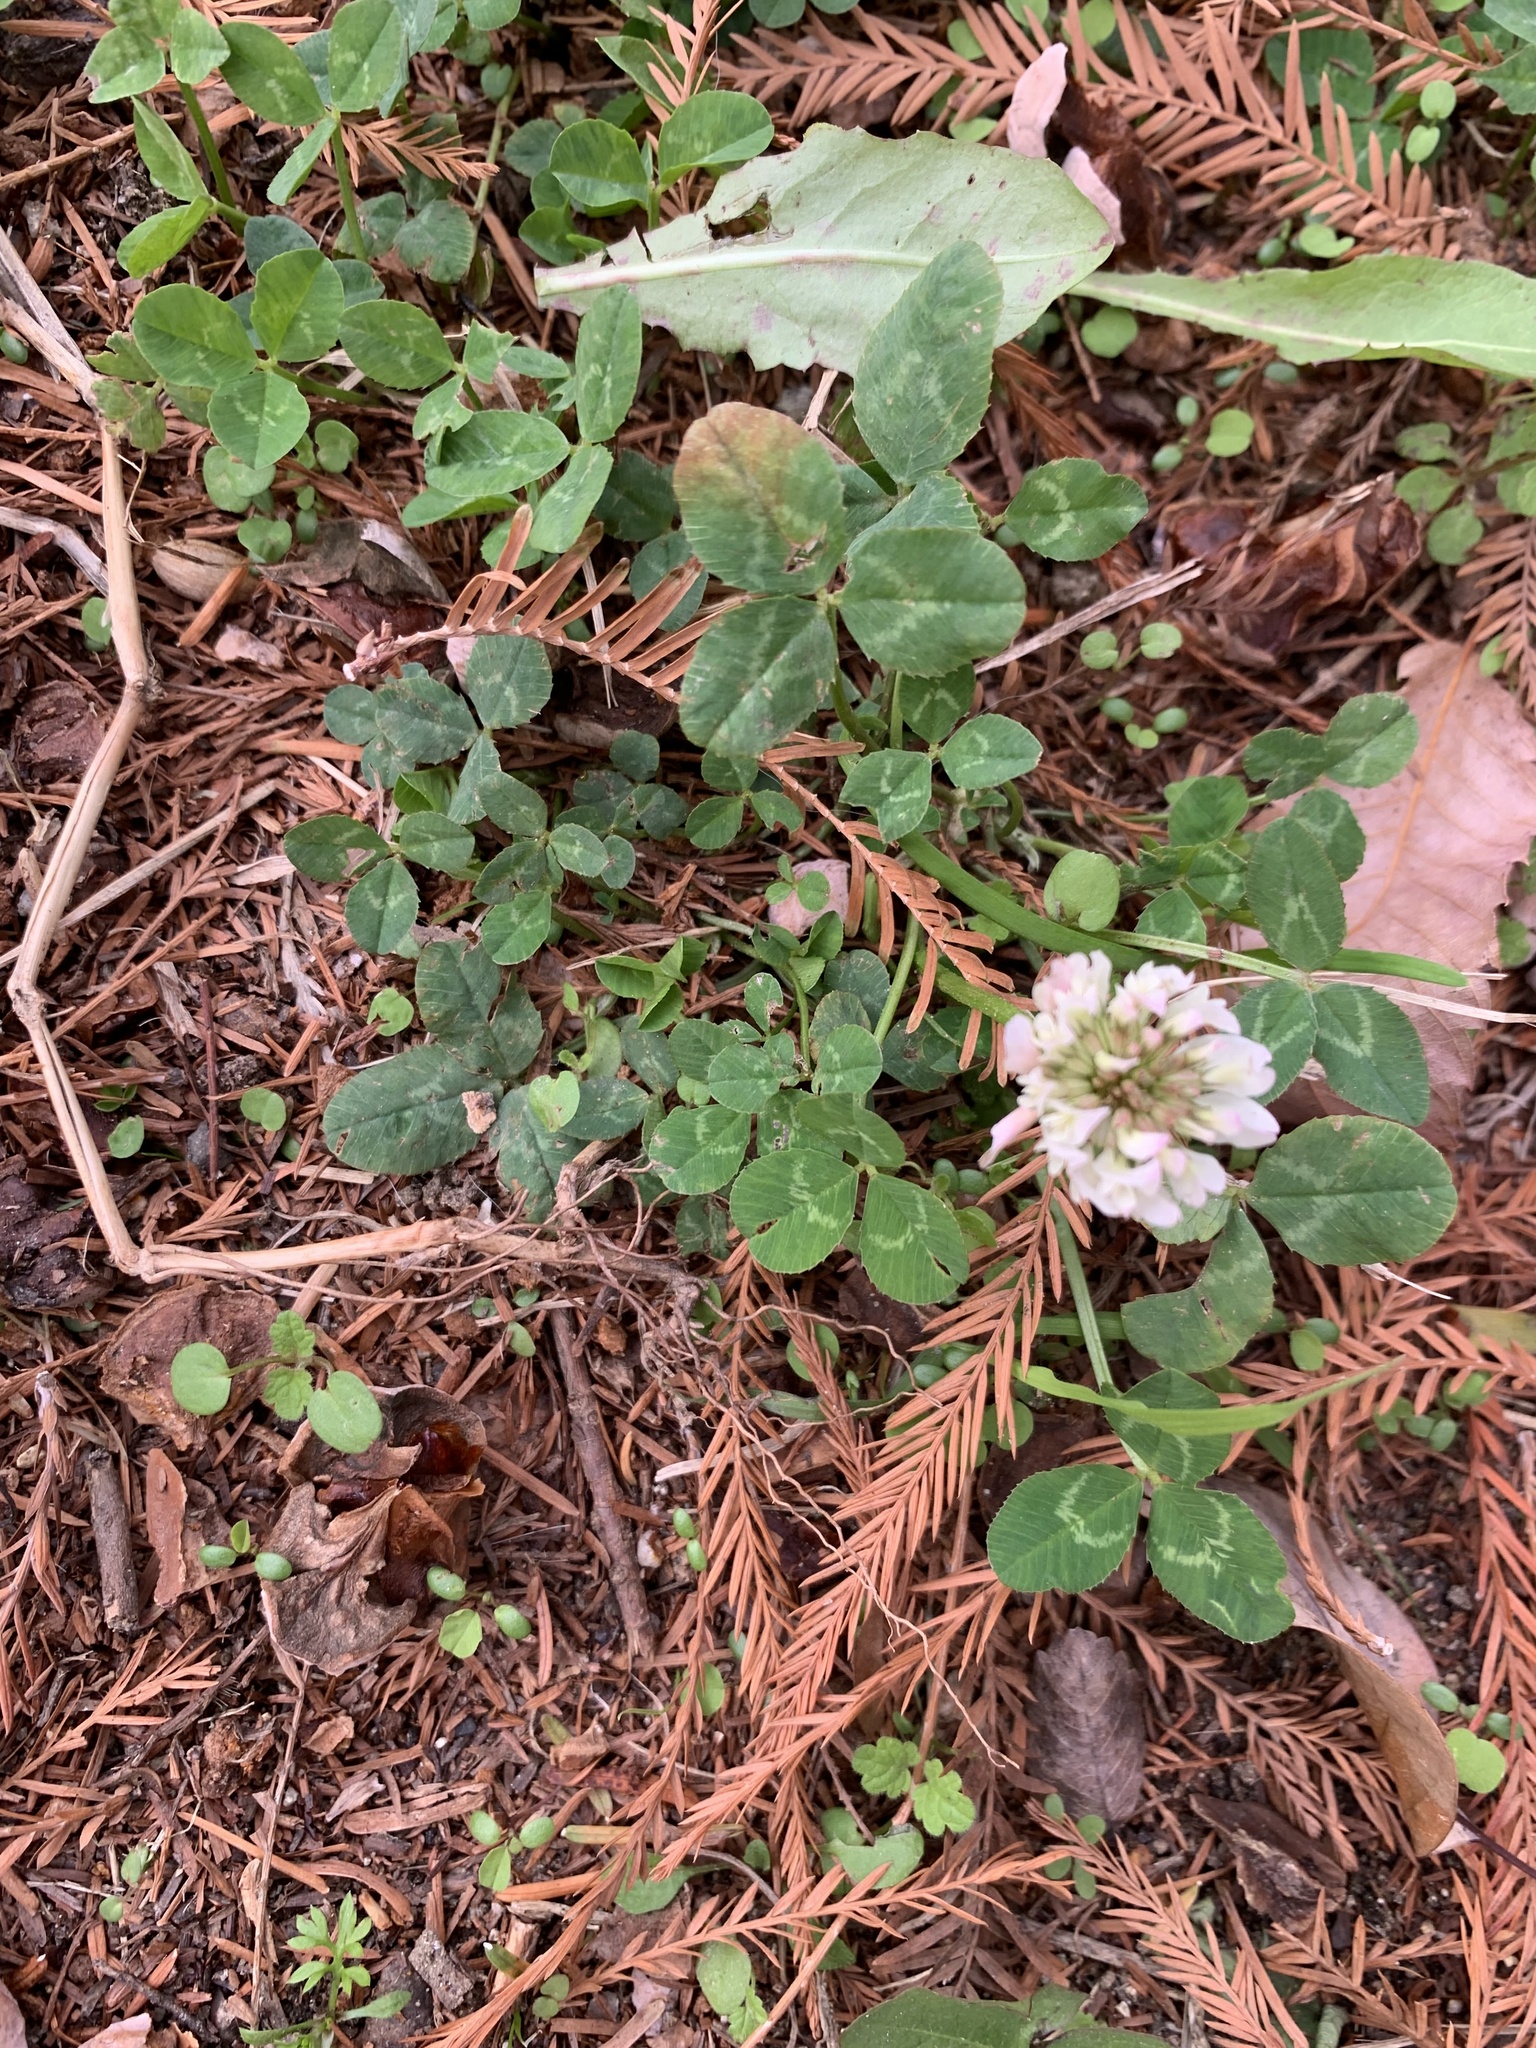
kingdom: Plantae
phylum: Tracheophyta
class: Magnoliopsida
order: Fabales
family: Fabaceae
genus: Trifolium
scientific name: Trifolium repens
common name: White clover
